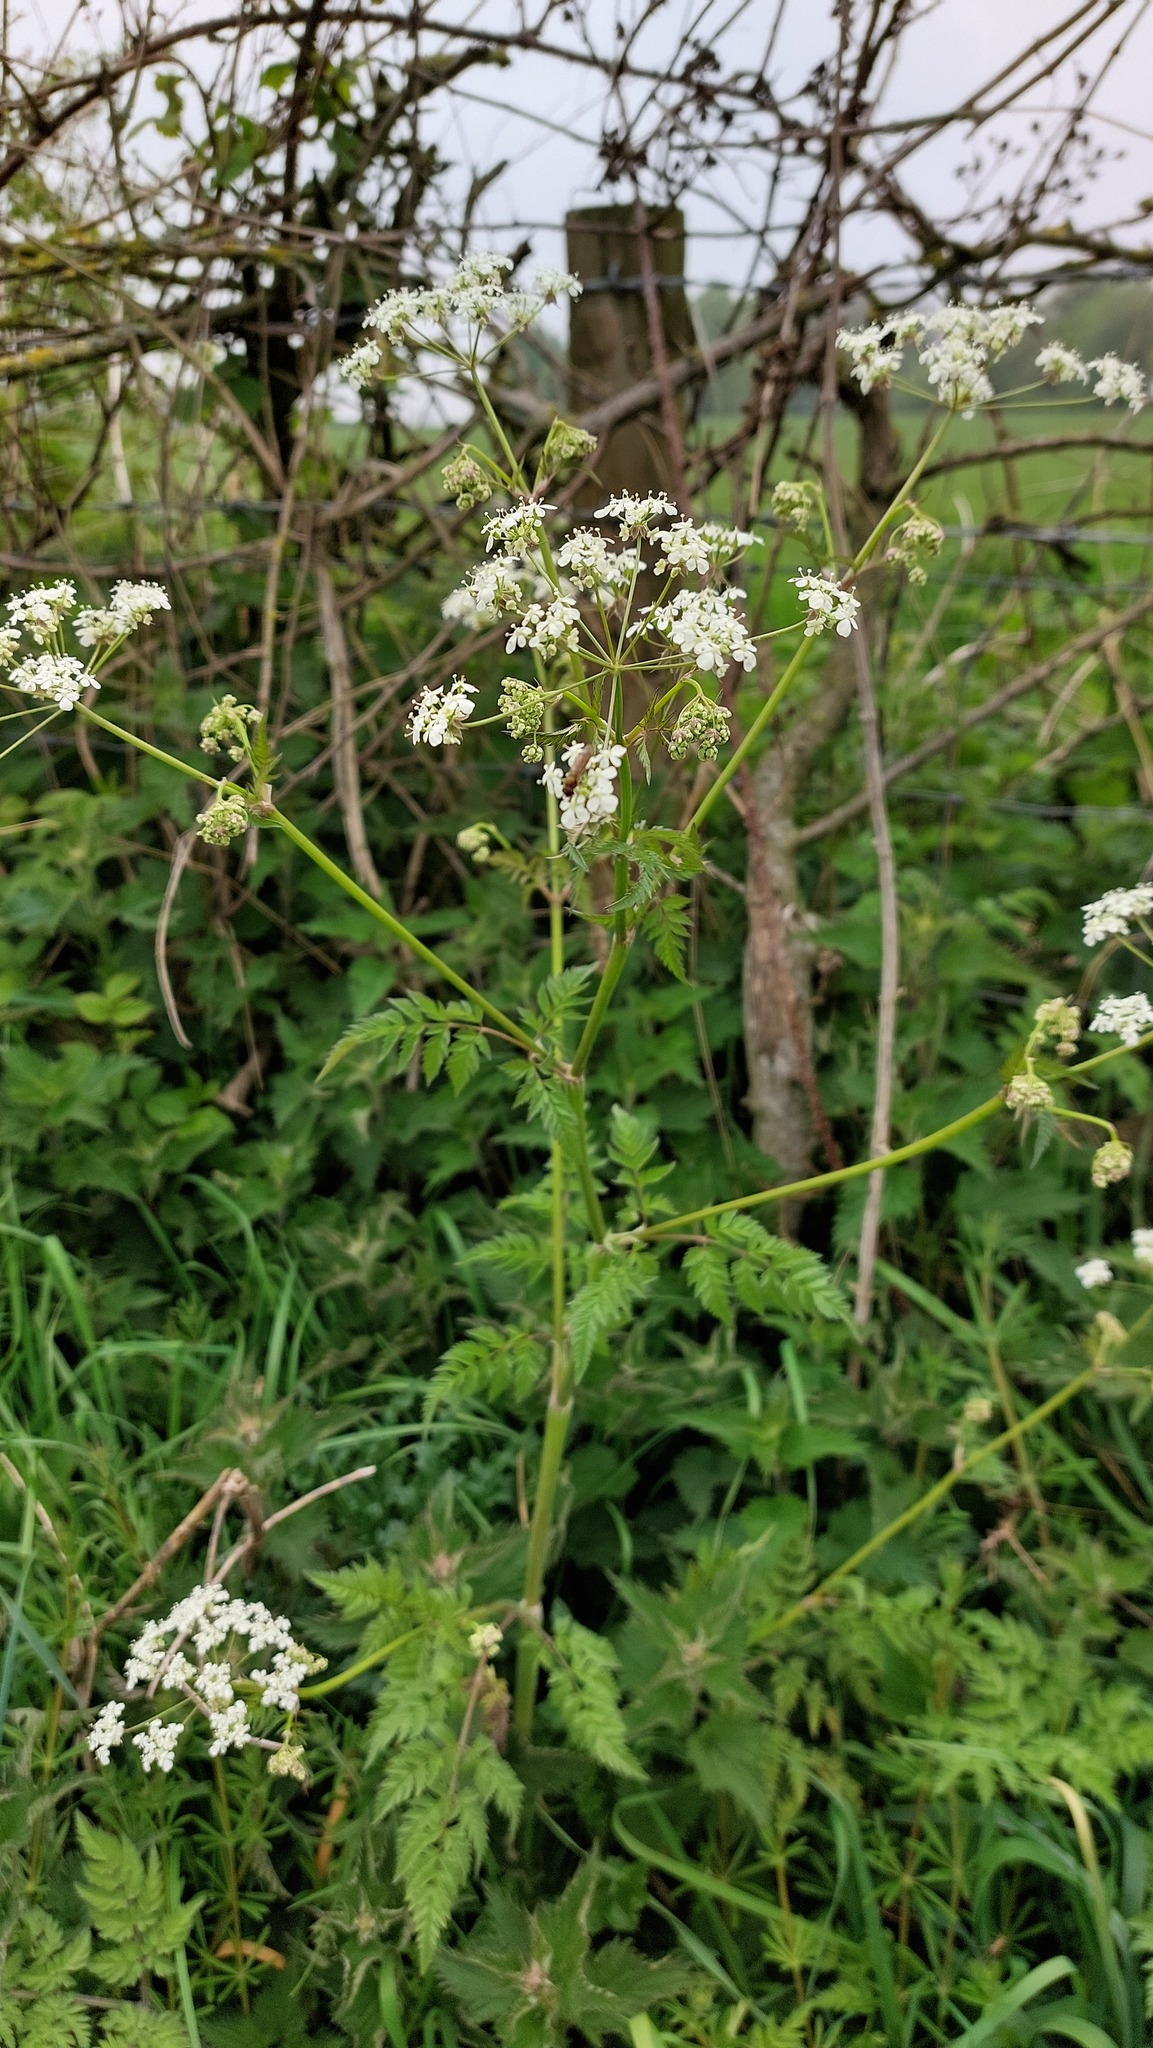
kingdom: Plantae
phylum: Tracheophyta
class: Magnoliopsida
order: Apiales
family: Apiaceae
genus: Anthriscus
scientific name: Anthriscus sylvestris
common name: Cow parsley
